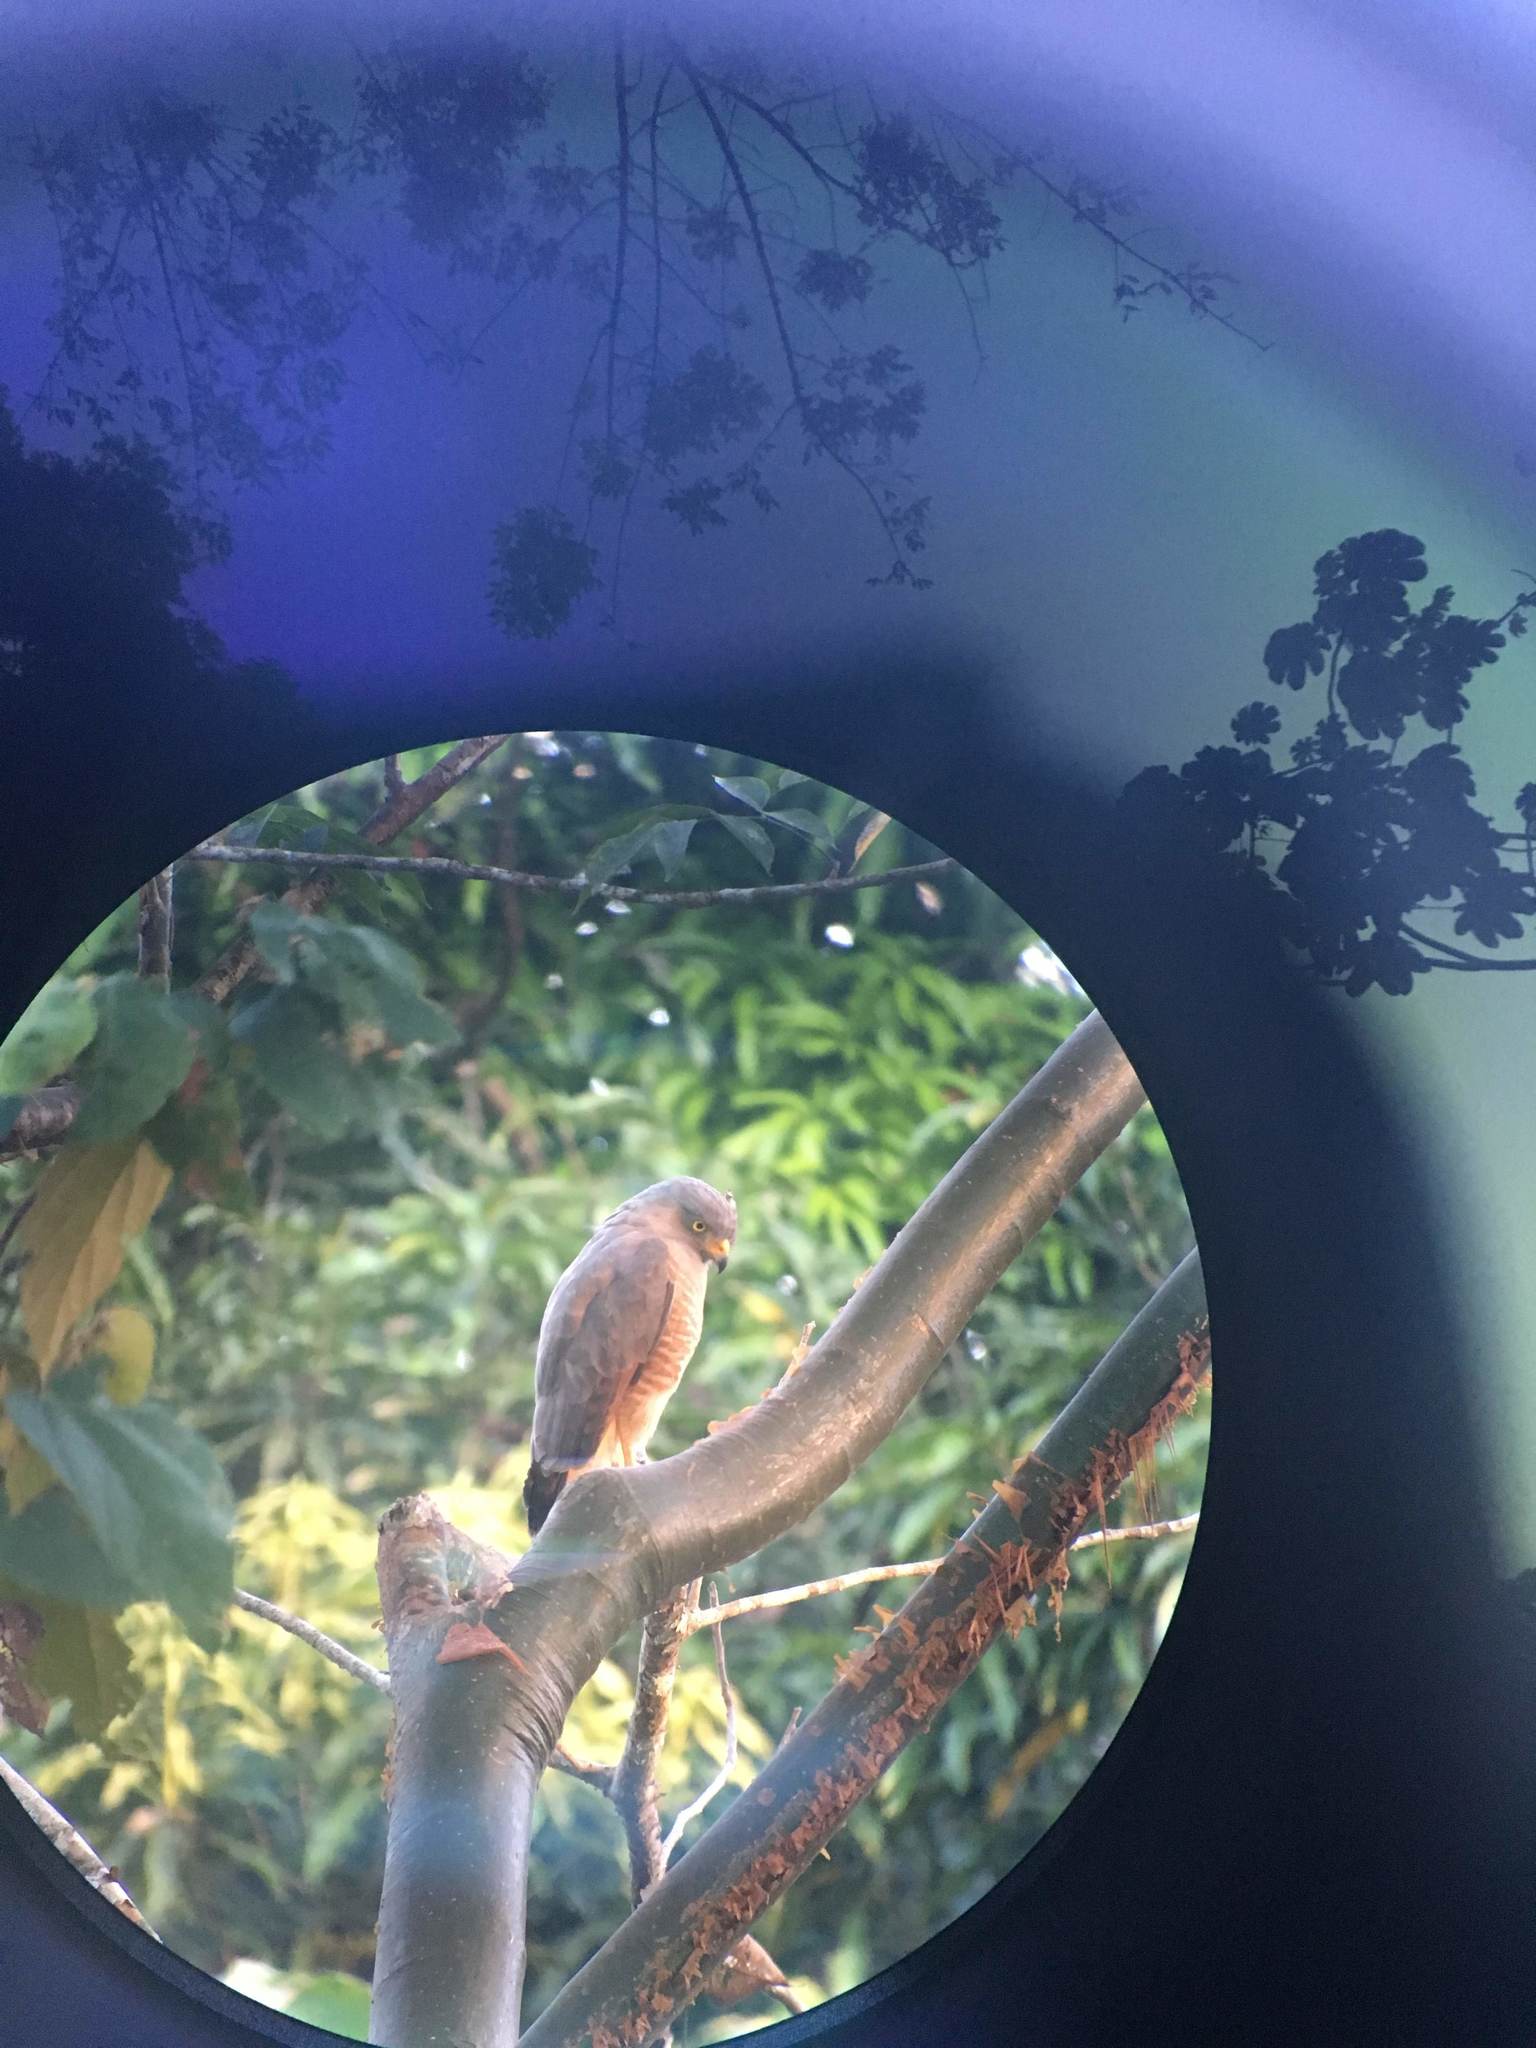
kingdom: Animalia
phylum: Chordata
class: Aves
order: Accipitriformes
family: Accipitridae
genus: Rupornis
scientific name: Rupornis magnirostris
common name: Roadside hawk
